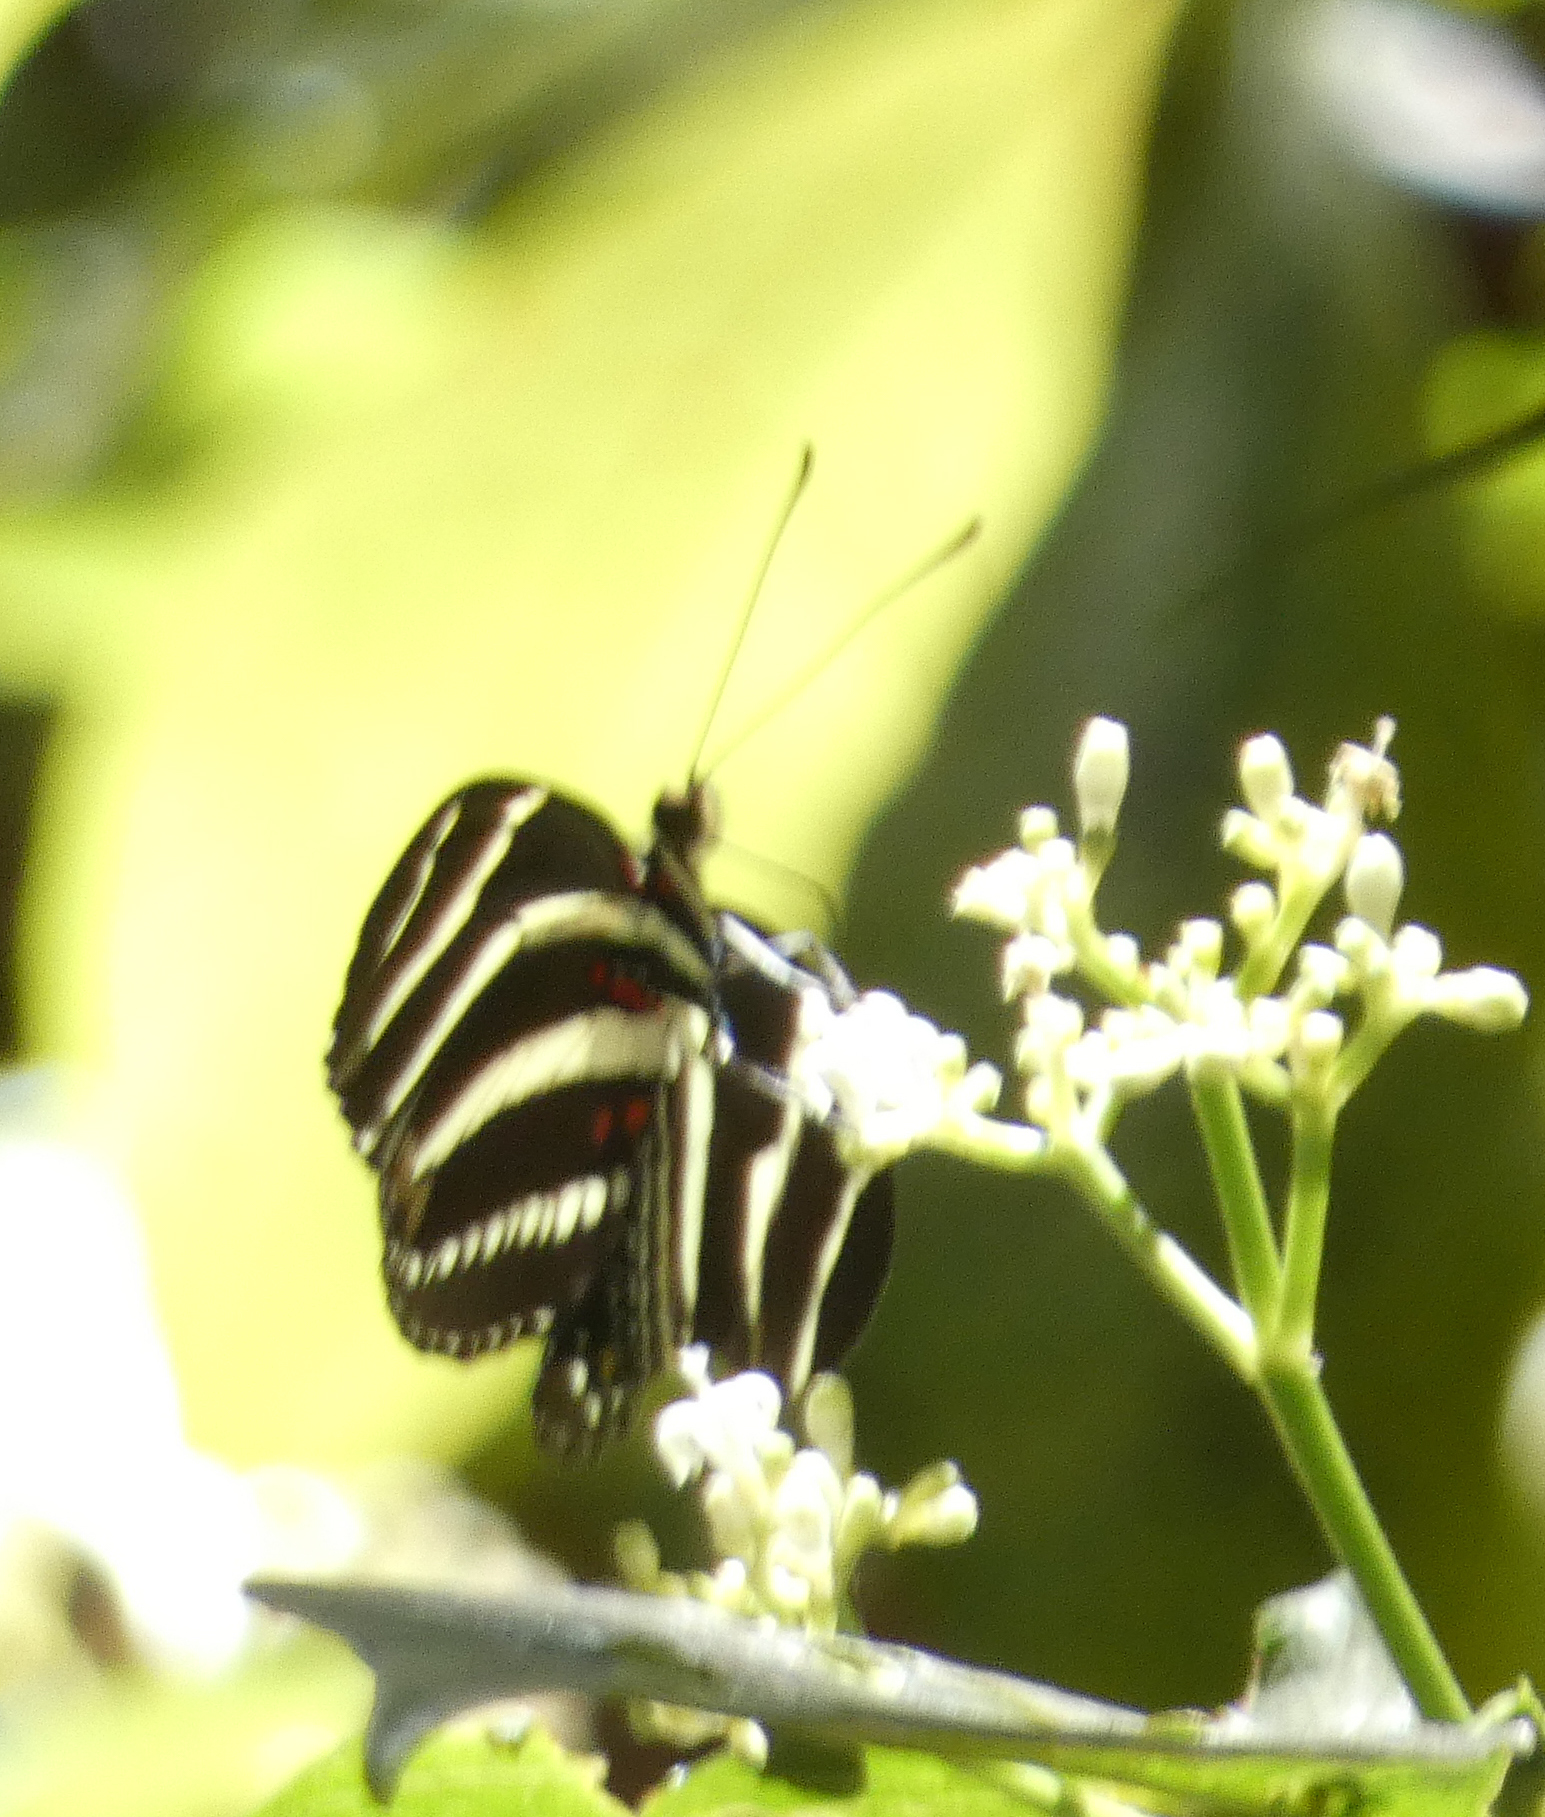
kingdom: Animalia
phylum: Arthropoda
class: Insecta
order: Lepidoptera
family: Nymphalidae
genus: Heliconius
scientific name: Heliconius charithonia
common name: Zebra long wing
